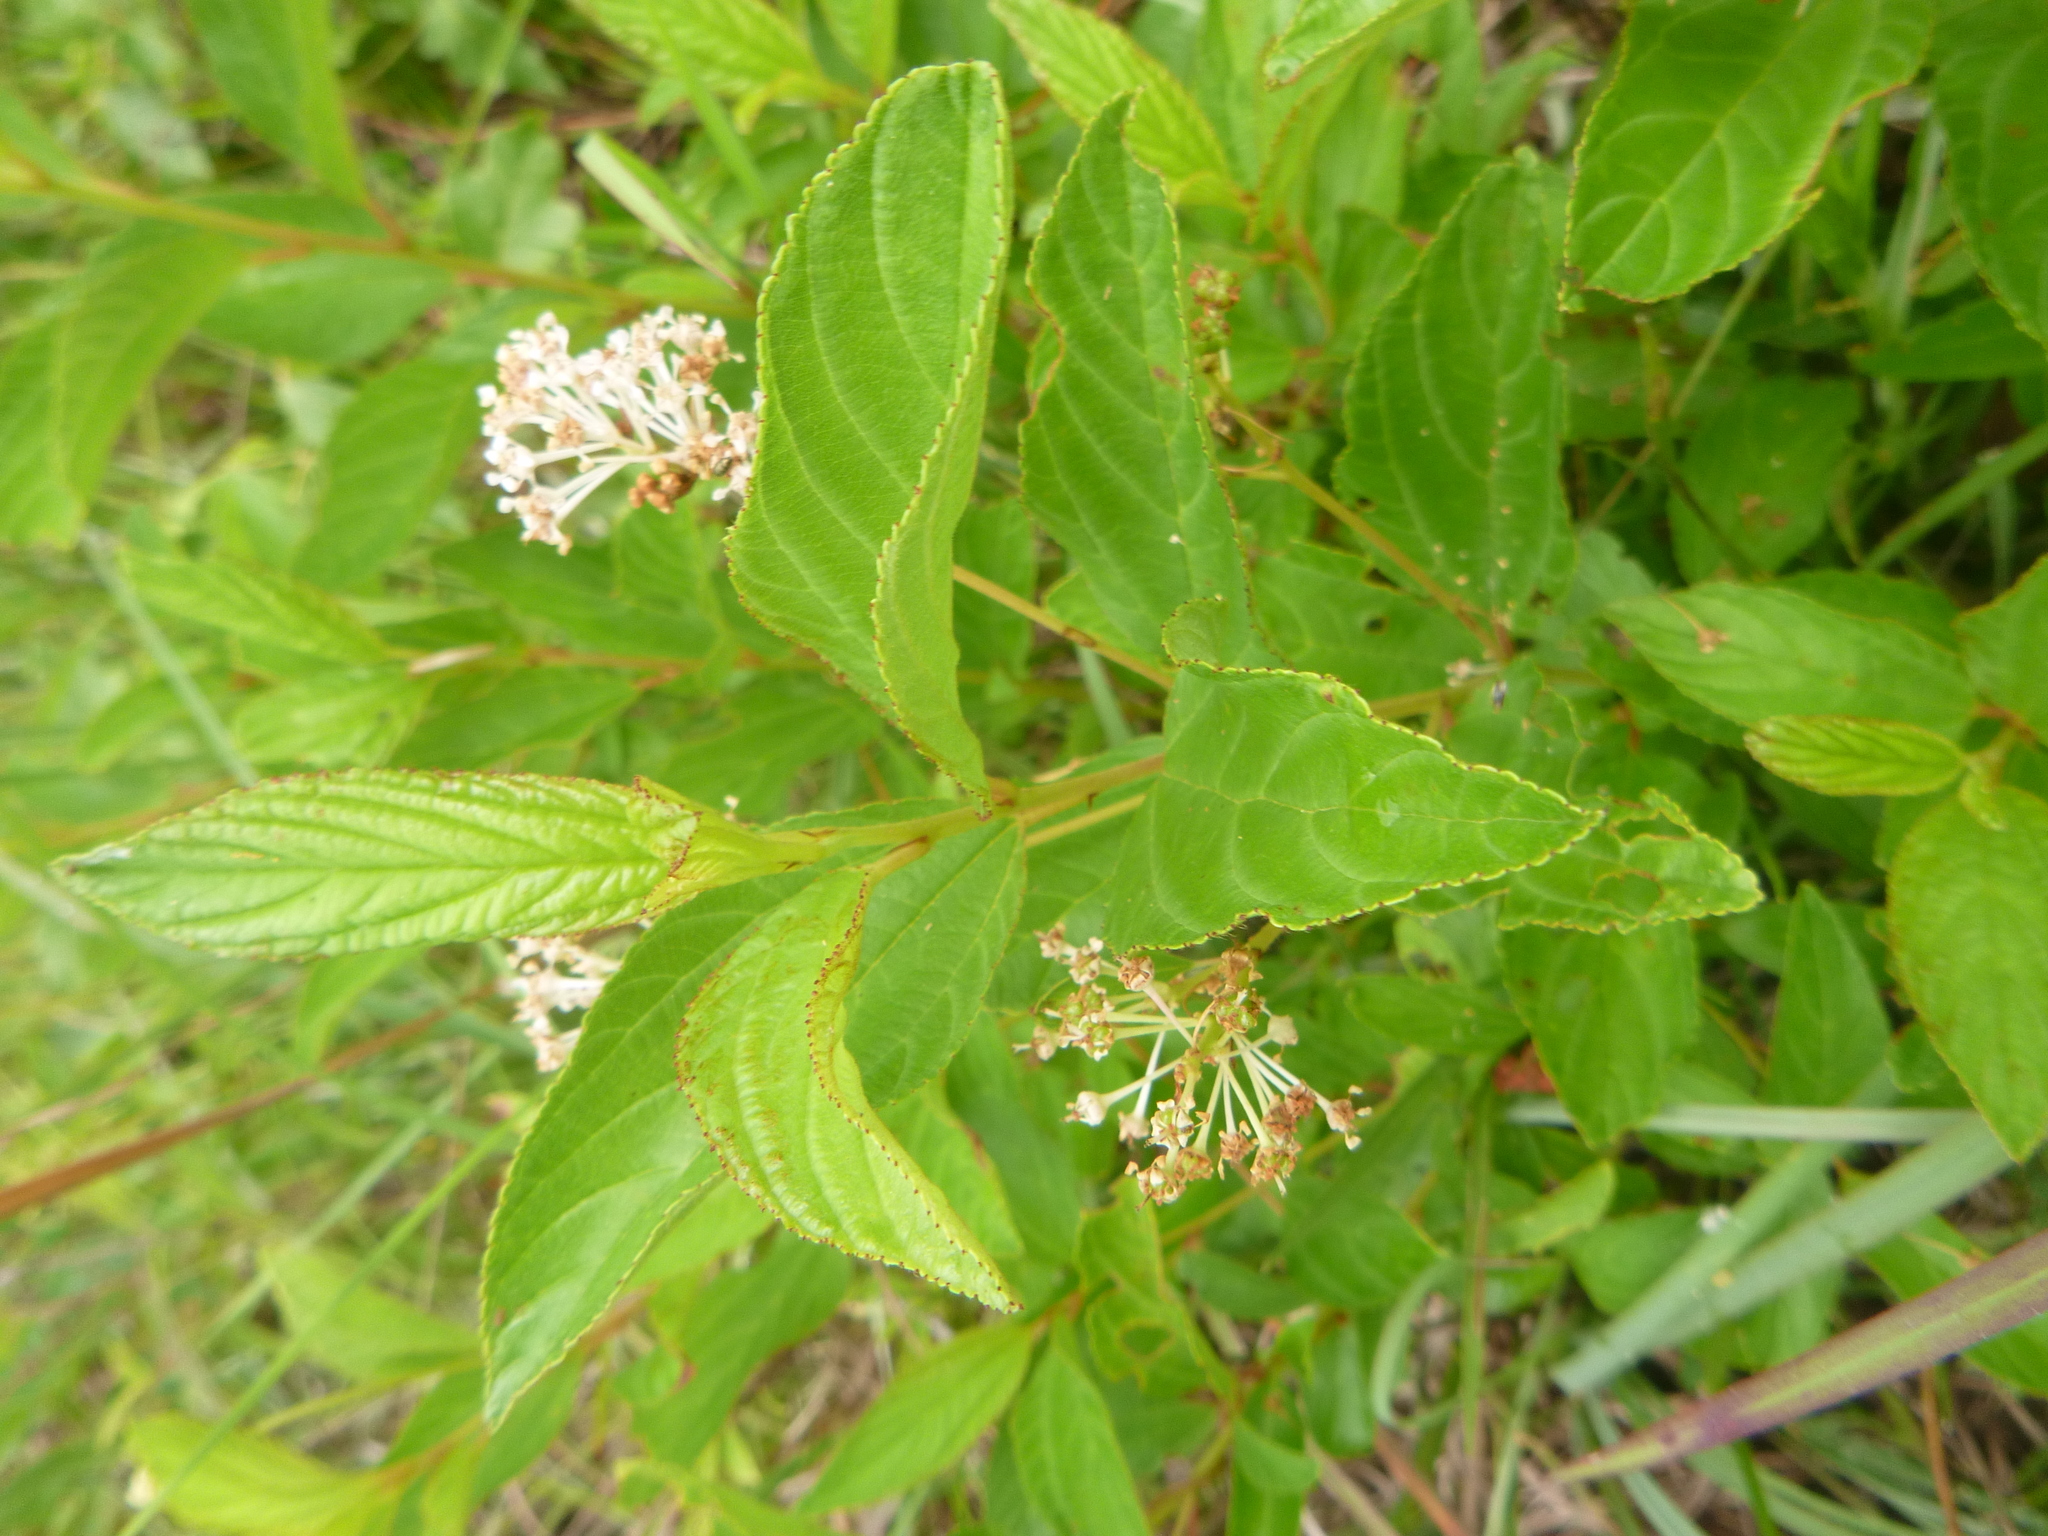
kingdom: Plantae
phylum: Tracheophyta
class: Magnoliopsida
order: Rosales
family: Rhamnaceae
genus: Ceanothus
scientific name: Ceanothus americanus
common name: Redroot
